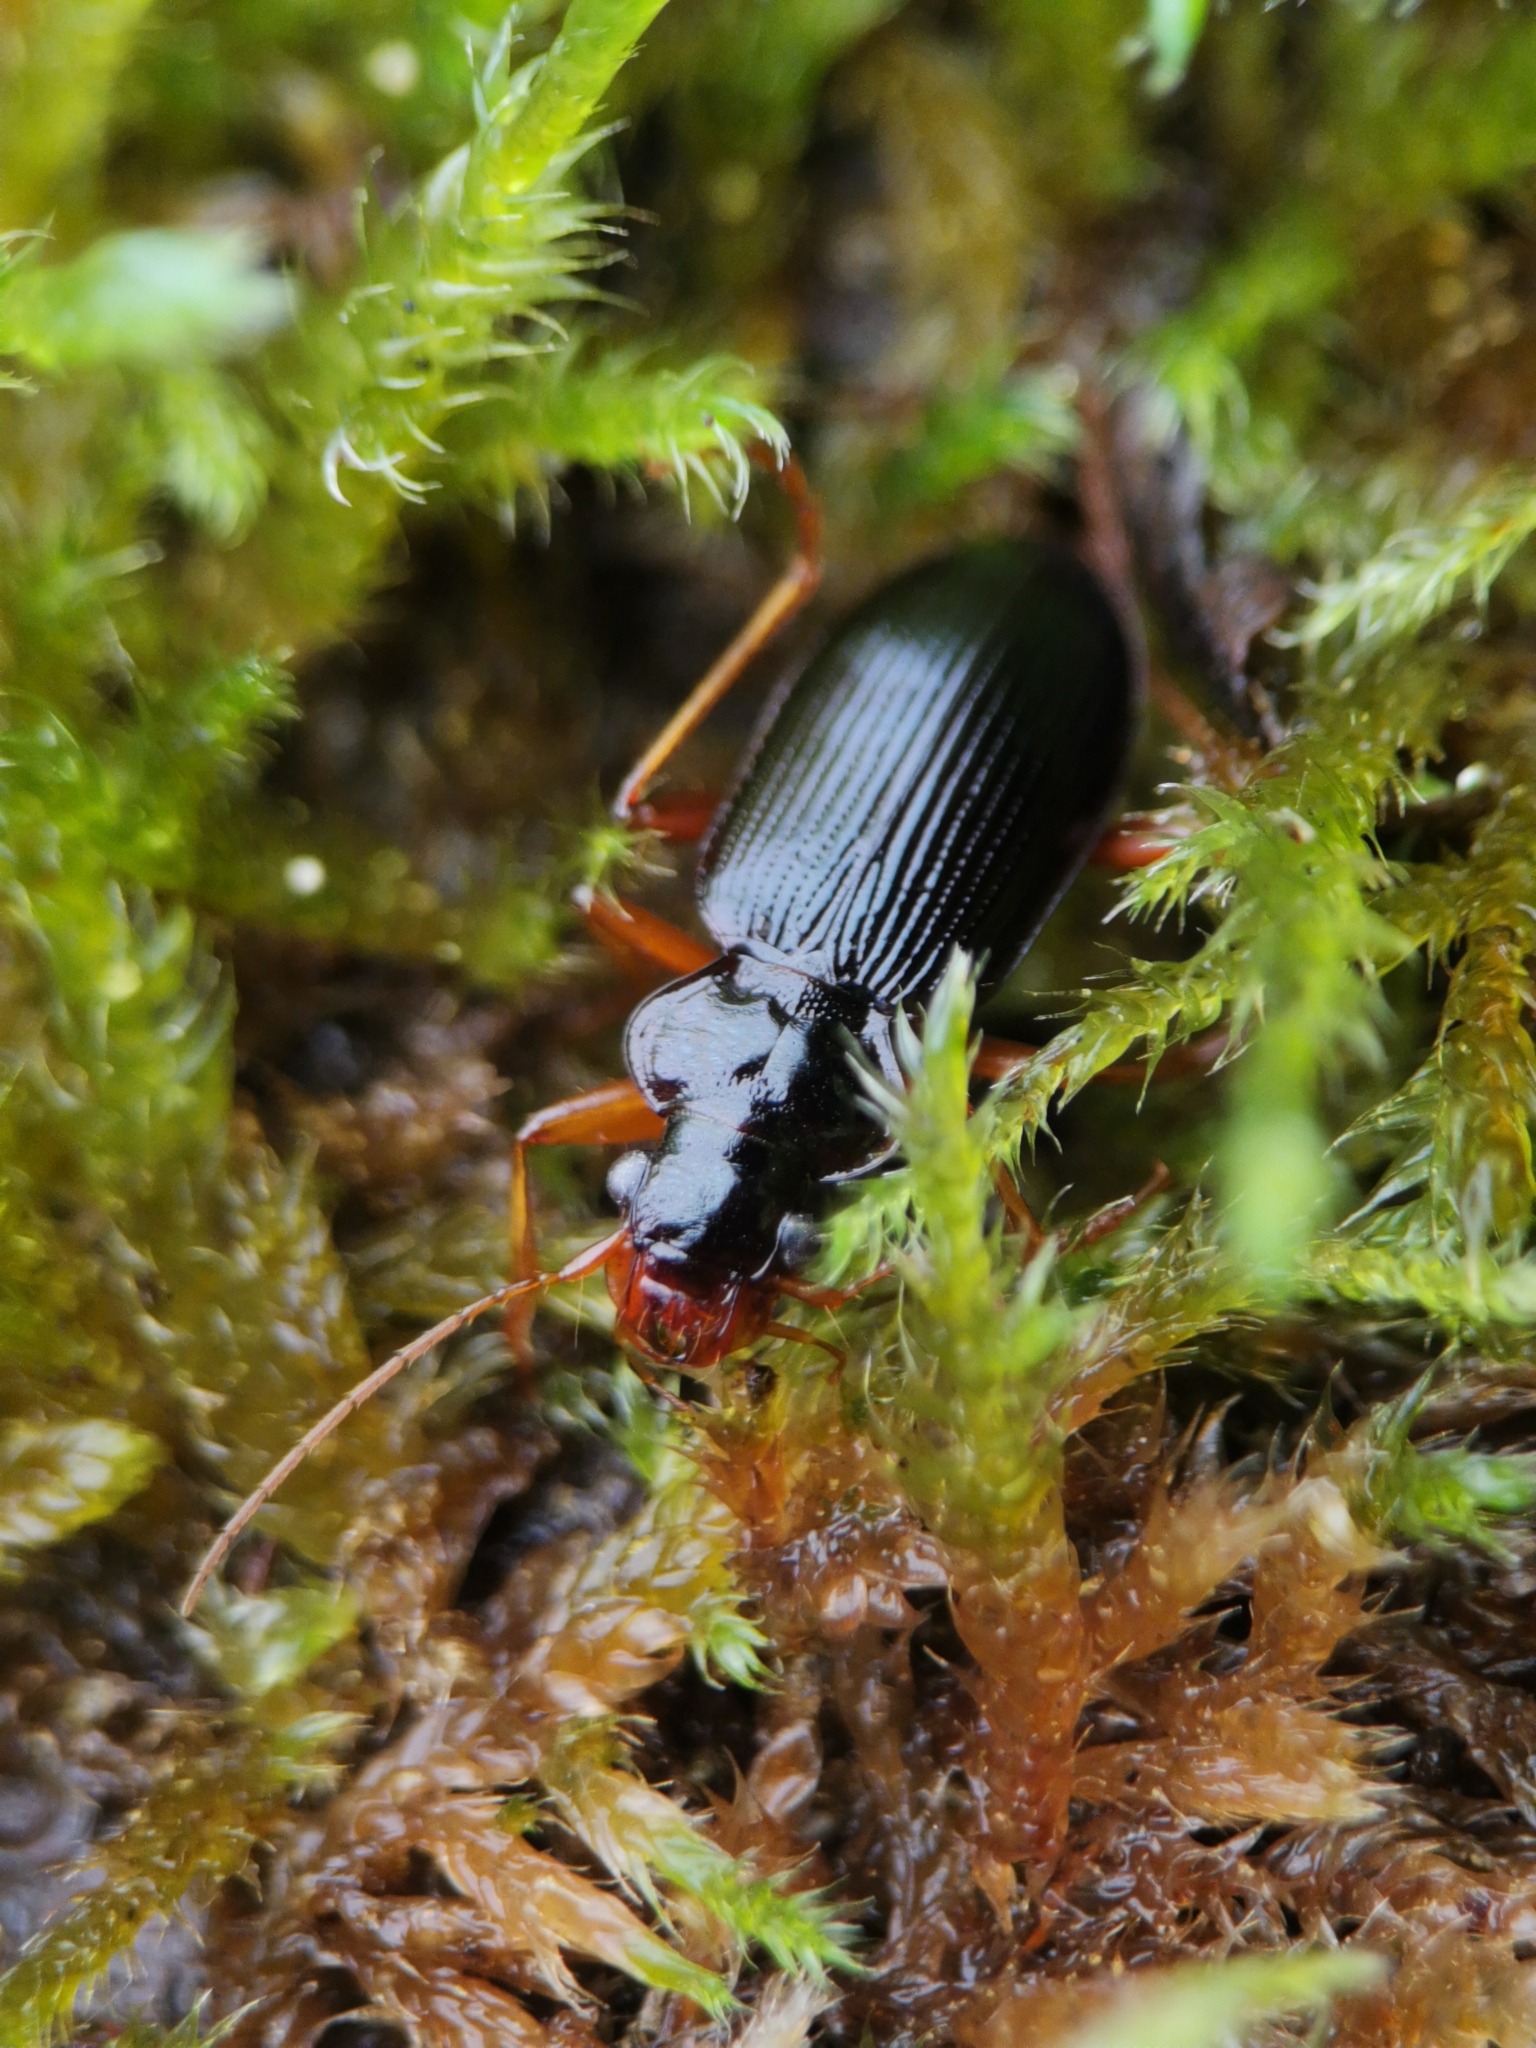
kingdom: Animalia
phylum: Arthropoda
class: Insecta
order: Coleoptera
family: Carabidae
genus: Leistus
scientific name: Leistus rufomarginatus
